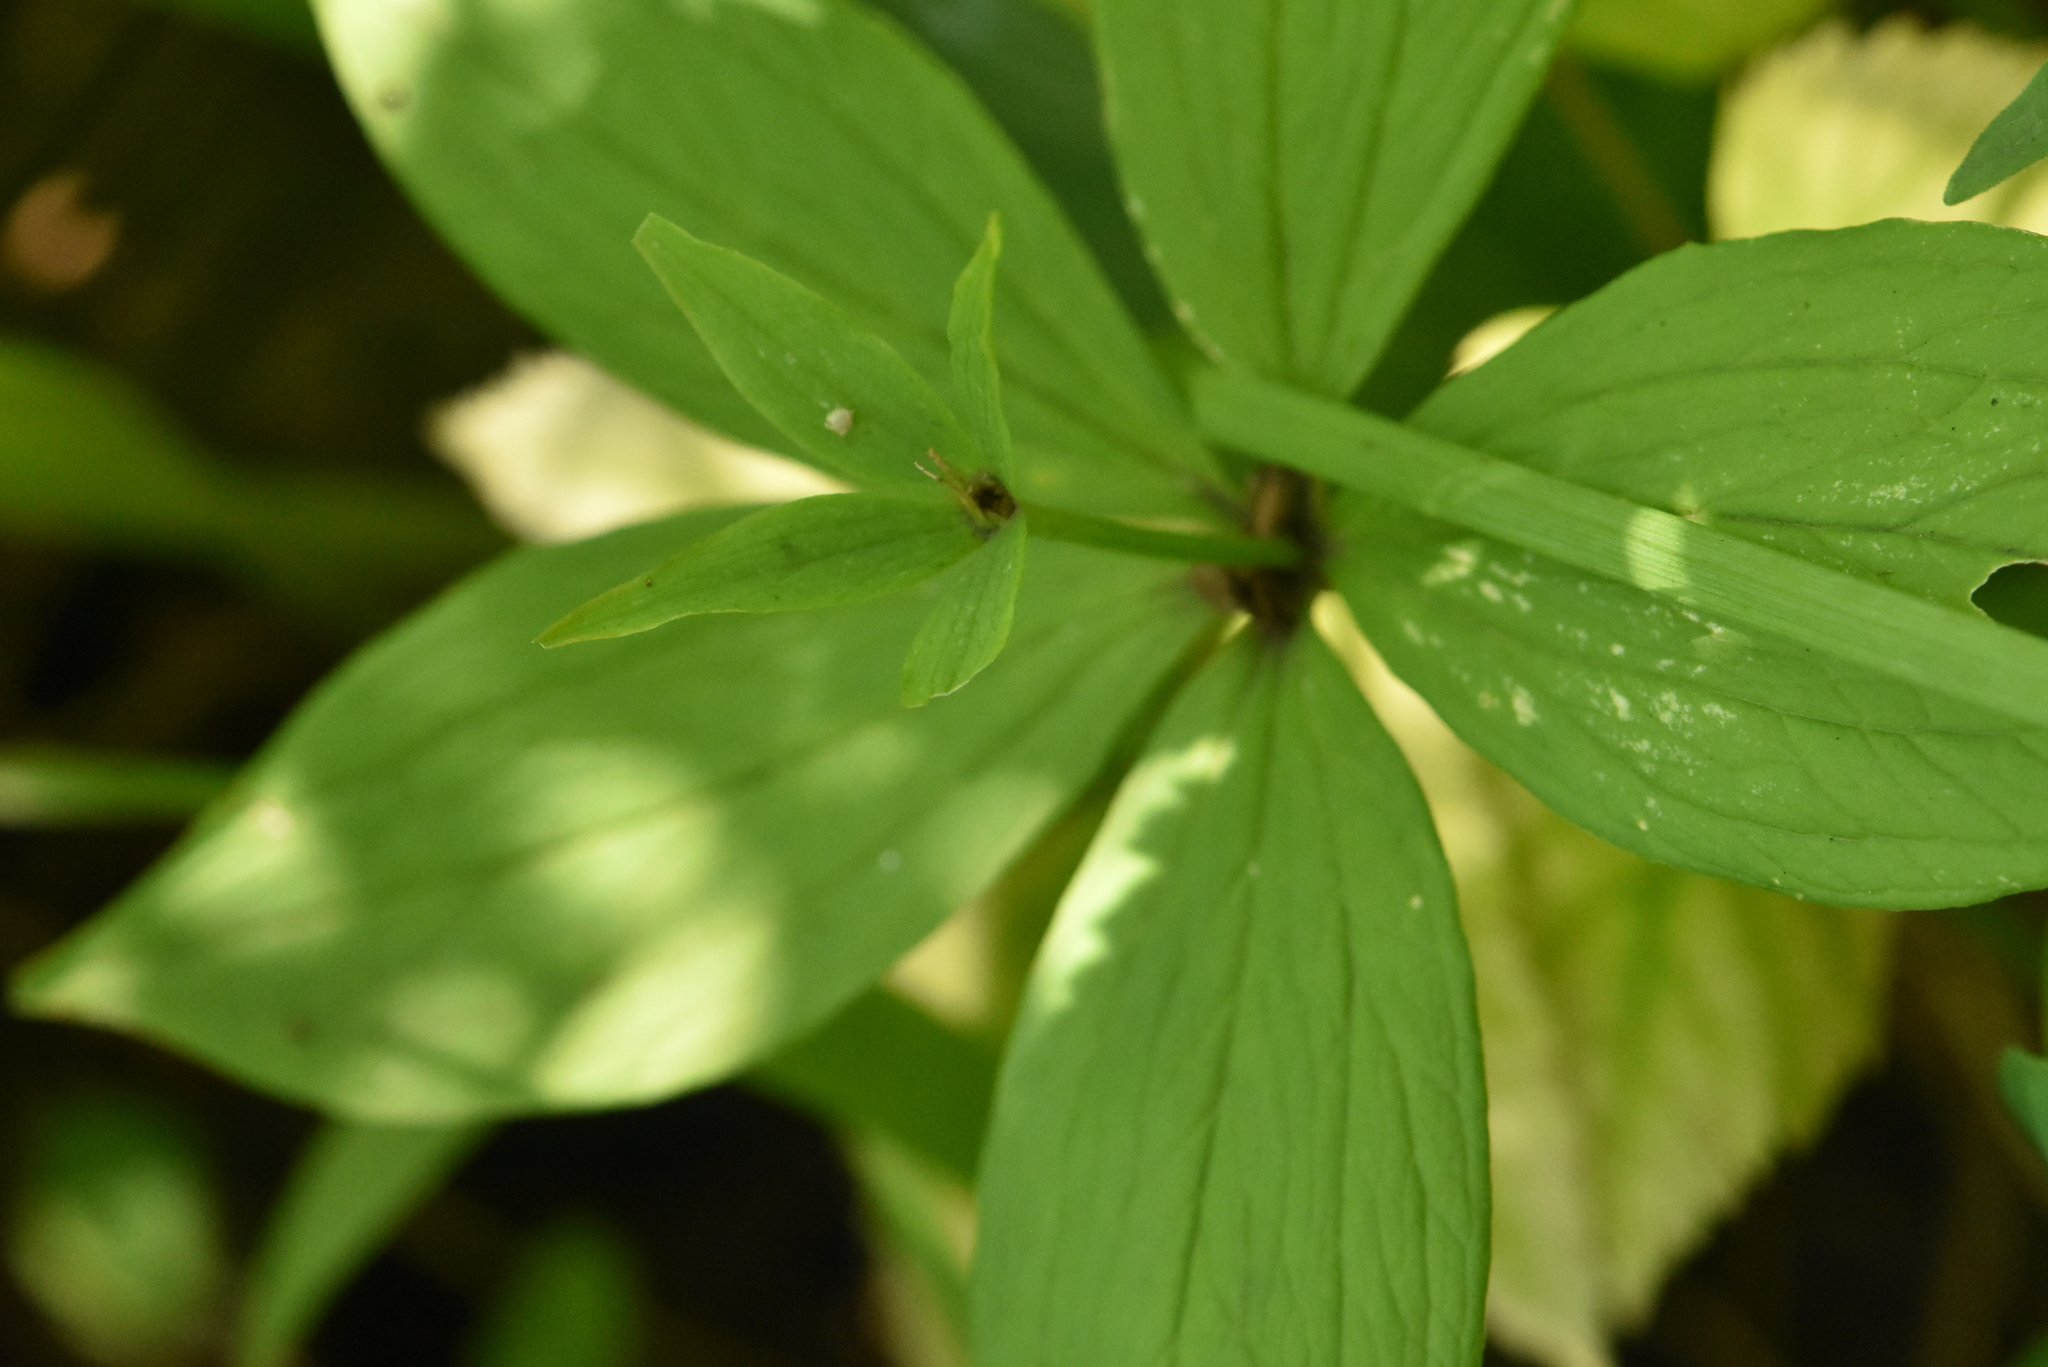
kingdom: Plantae
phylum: Tracheophyta
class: Liliopsida
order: Liliales
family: Melanthiaceae
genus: Paris
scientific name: Paris quadrifolia
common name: Herb-paris
